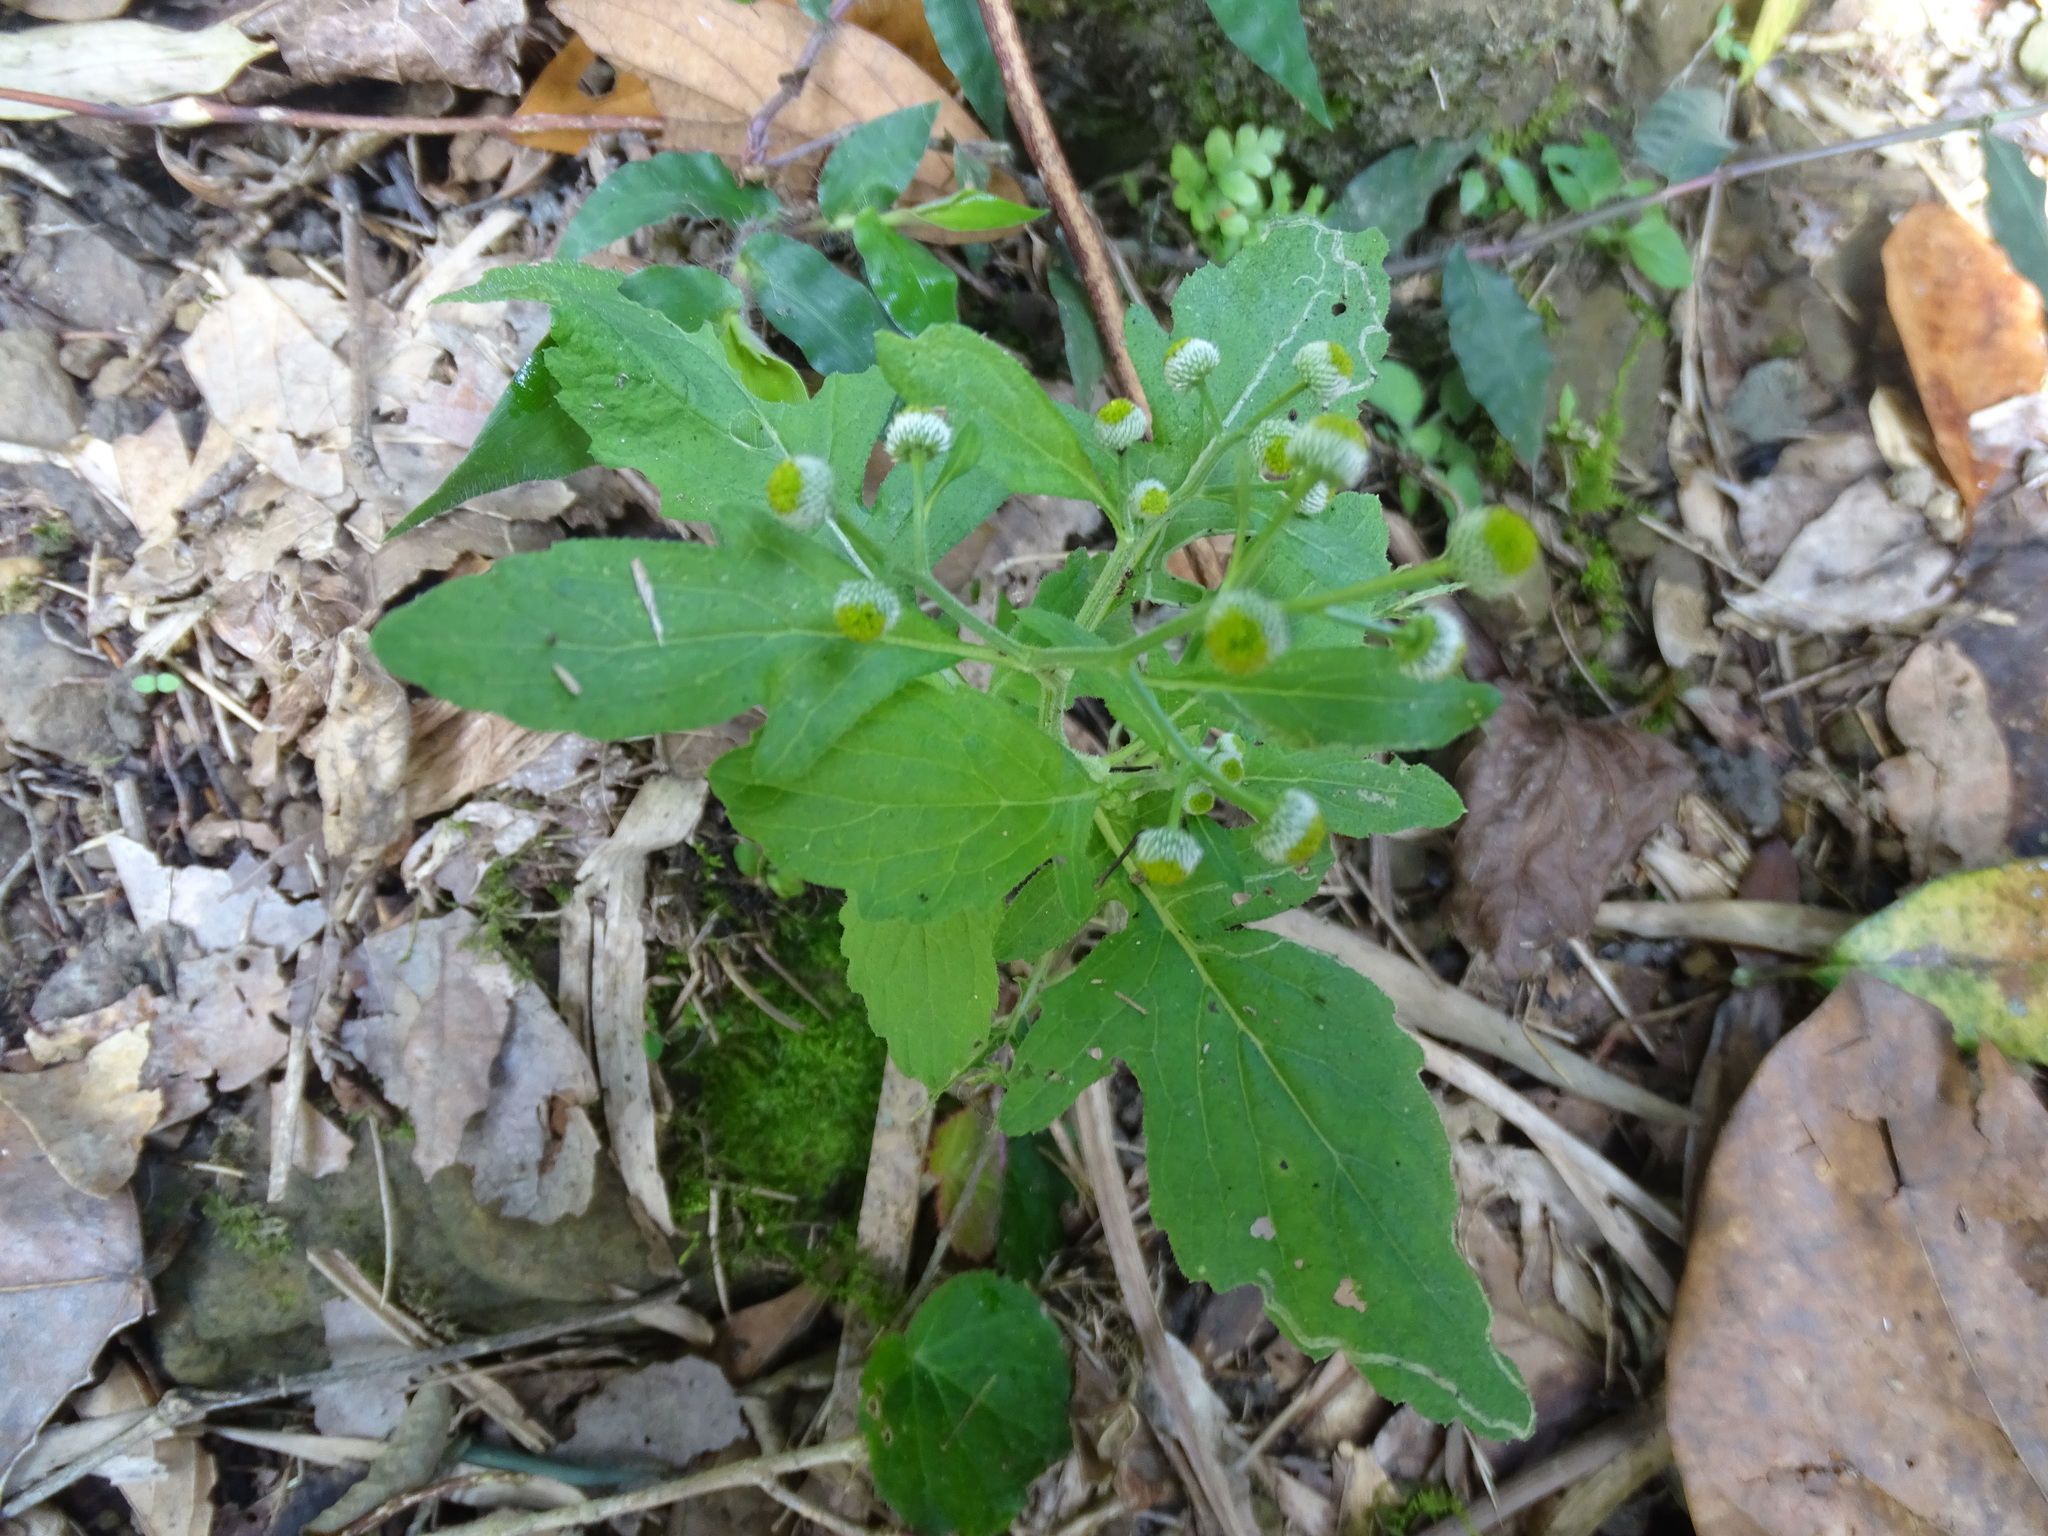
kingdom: Plantae
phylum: Tracheophyta
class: Magnoliopsida
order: Asterales
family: Asteraceae
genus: Dichrocephala
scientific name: Dichrocephala integrifolia
